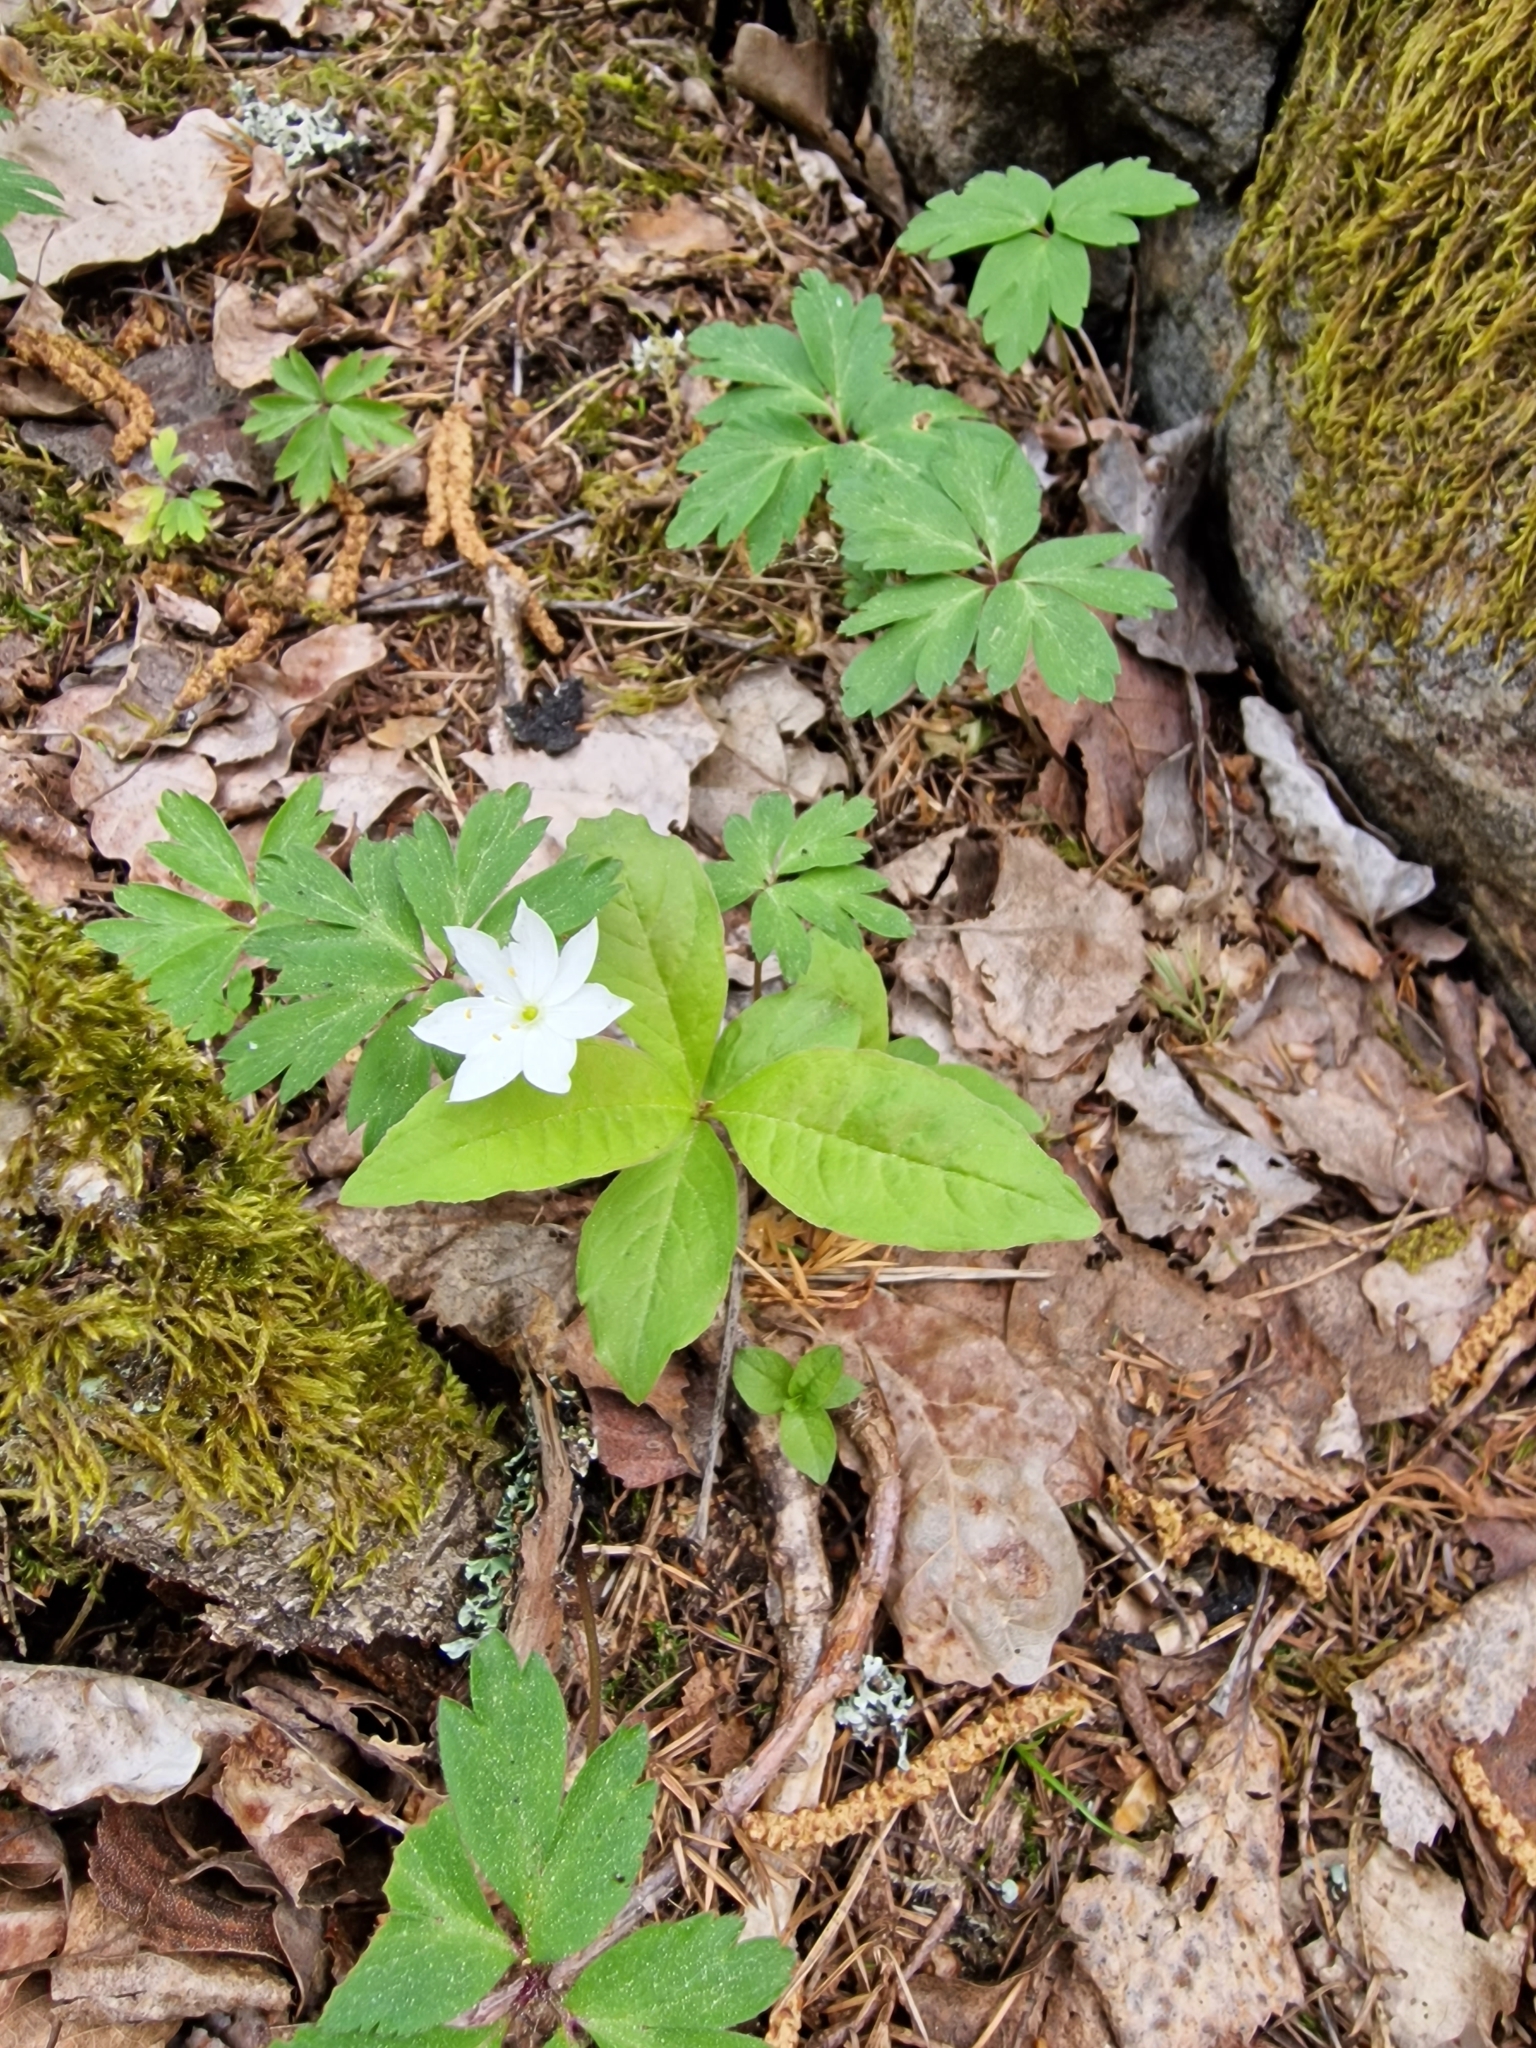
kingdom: Plantae
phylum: Tracheophyta
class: Magnoliopsida
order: Ericales
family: Primulaceae
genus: Lysimachia
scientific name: Lysimachia europaea
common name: Arctic starflower
